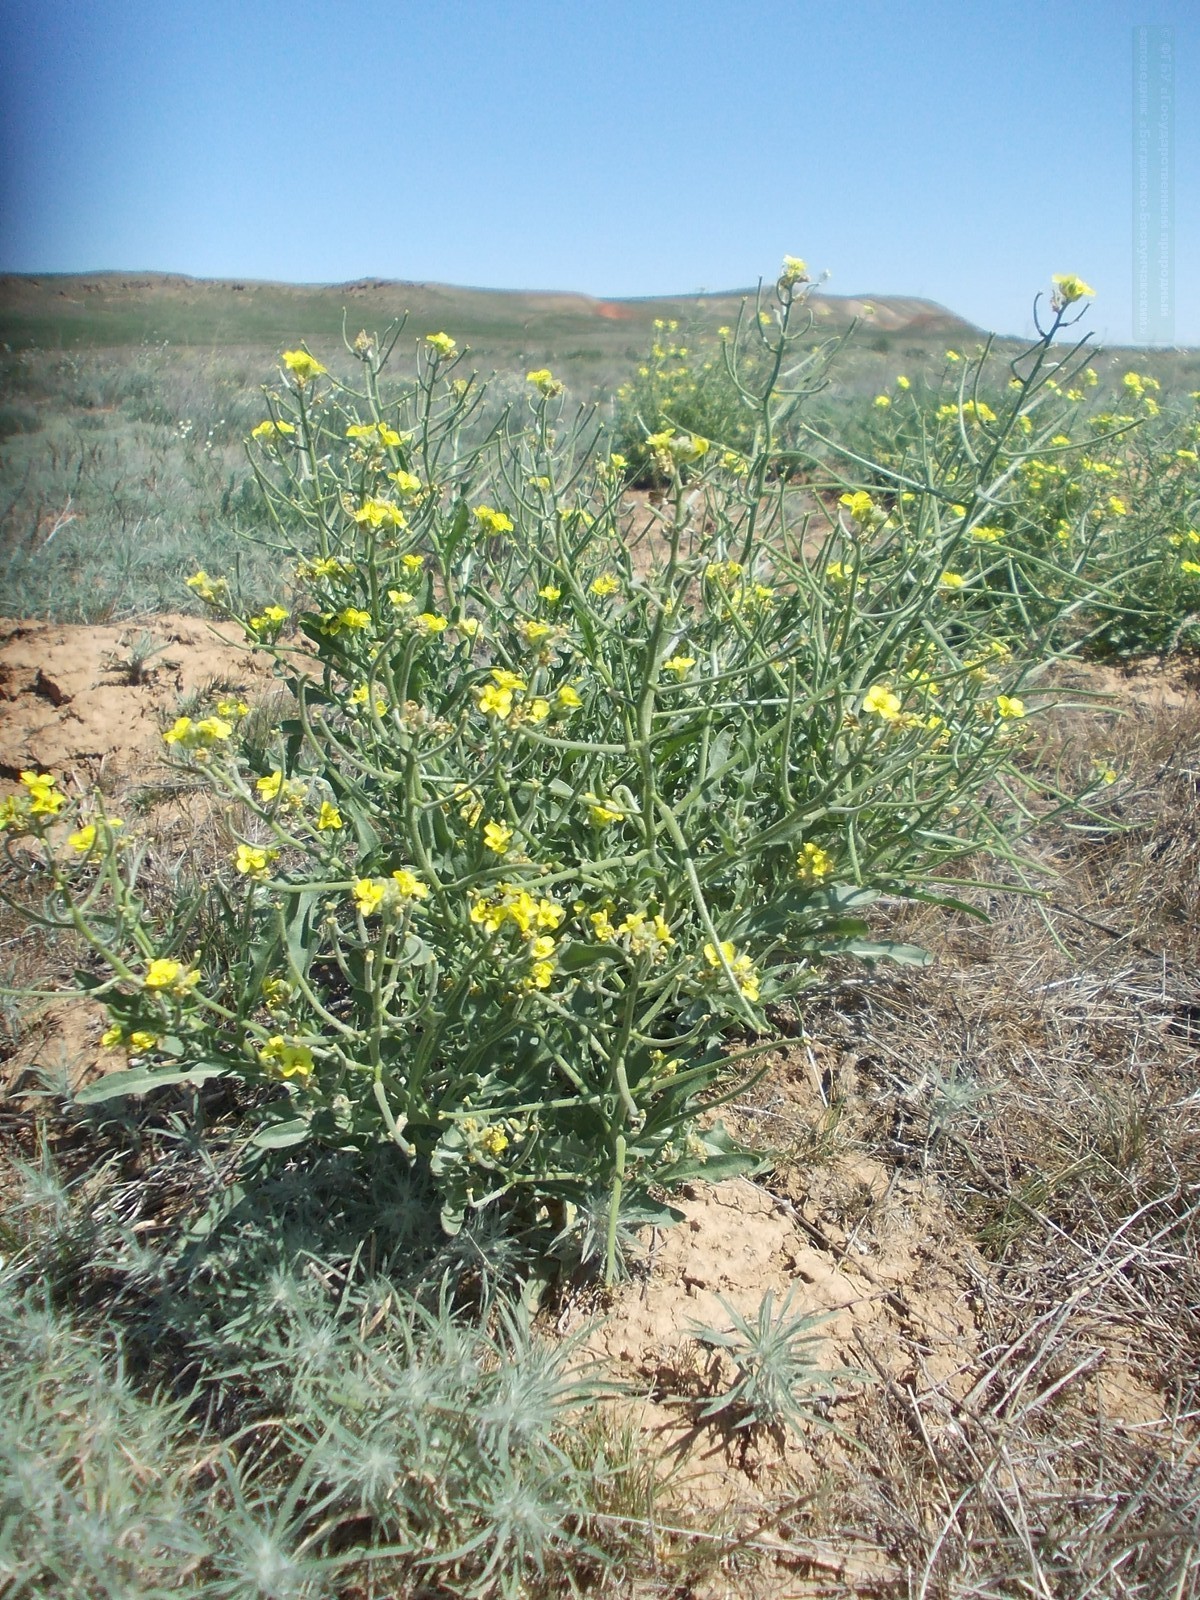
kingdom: Plantae
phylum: Tracheophyta
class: Magnoliopsida
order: Brassicales
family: Brassicaceae
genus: Sterigmostemum
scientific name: Sterigmostemum caspicum
